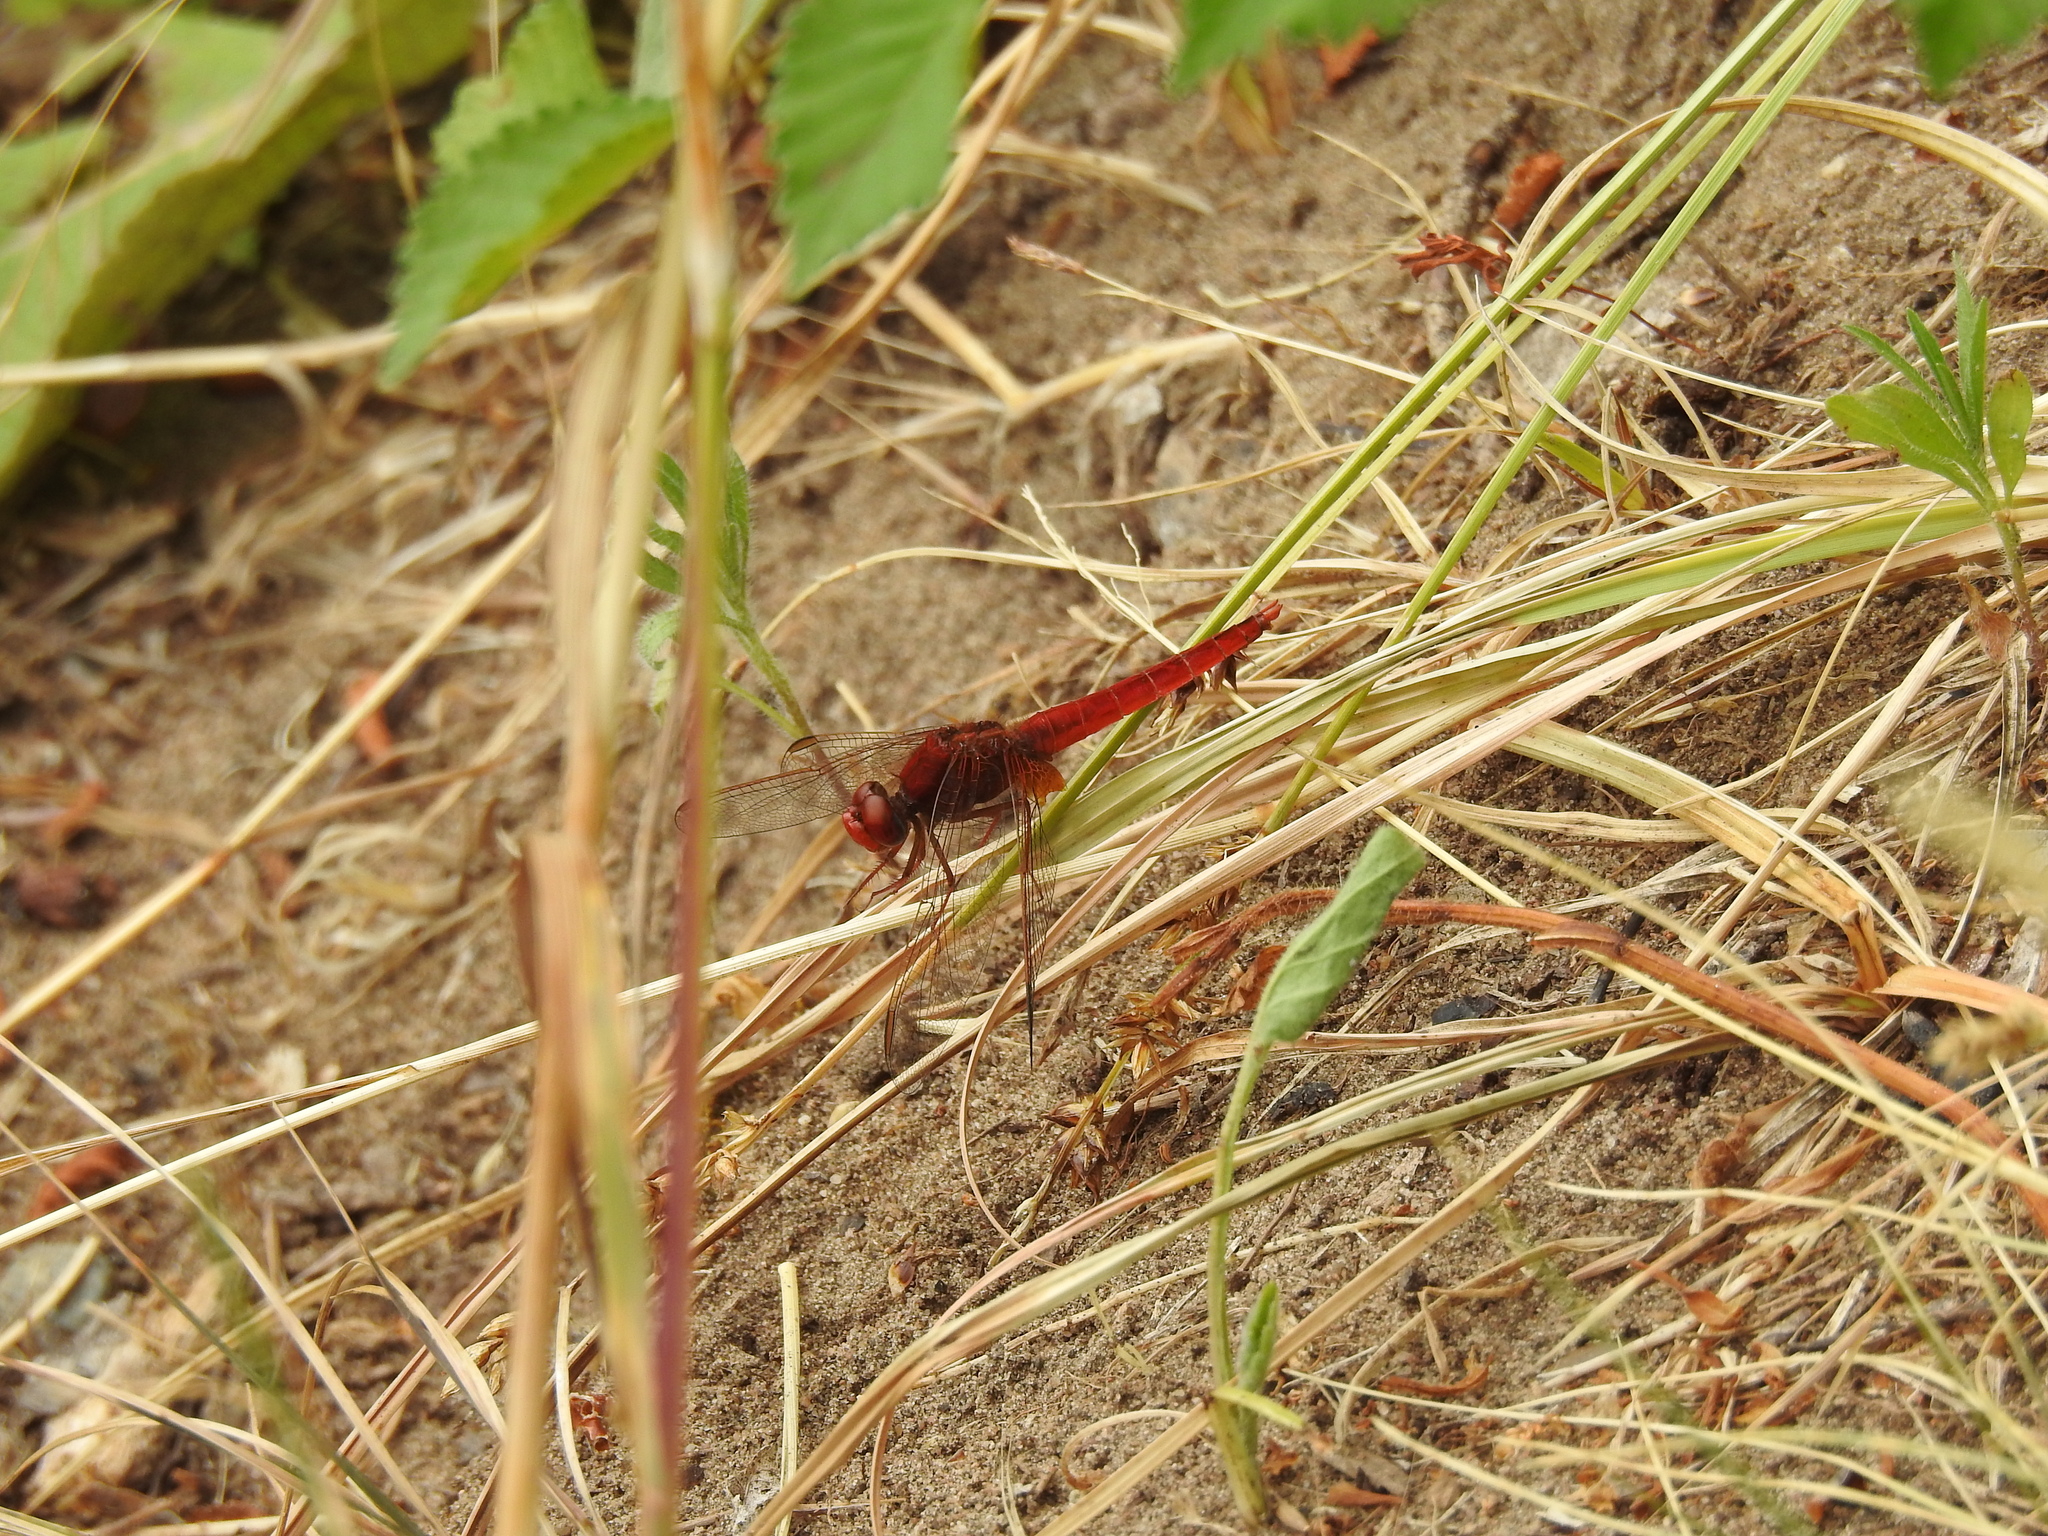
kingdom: Animalia
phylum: Arthropoda
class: Insecta
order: Odonata
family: Libellulidae
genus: Crocothemis
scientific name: Crocothemis erythraea
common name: Scarlet dragonfly
